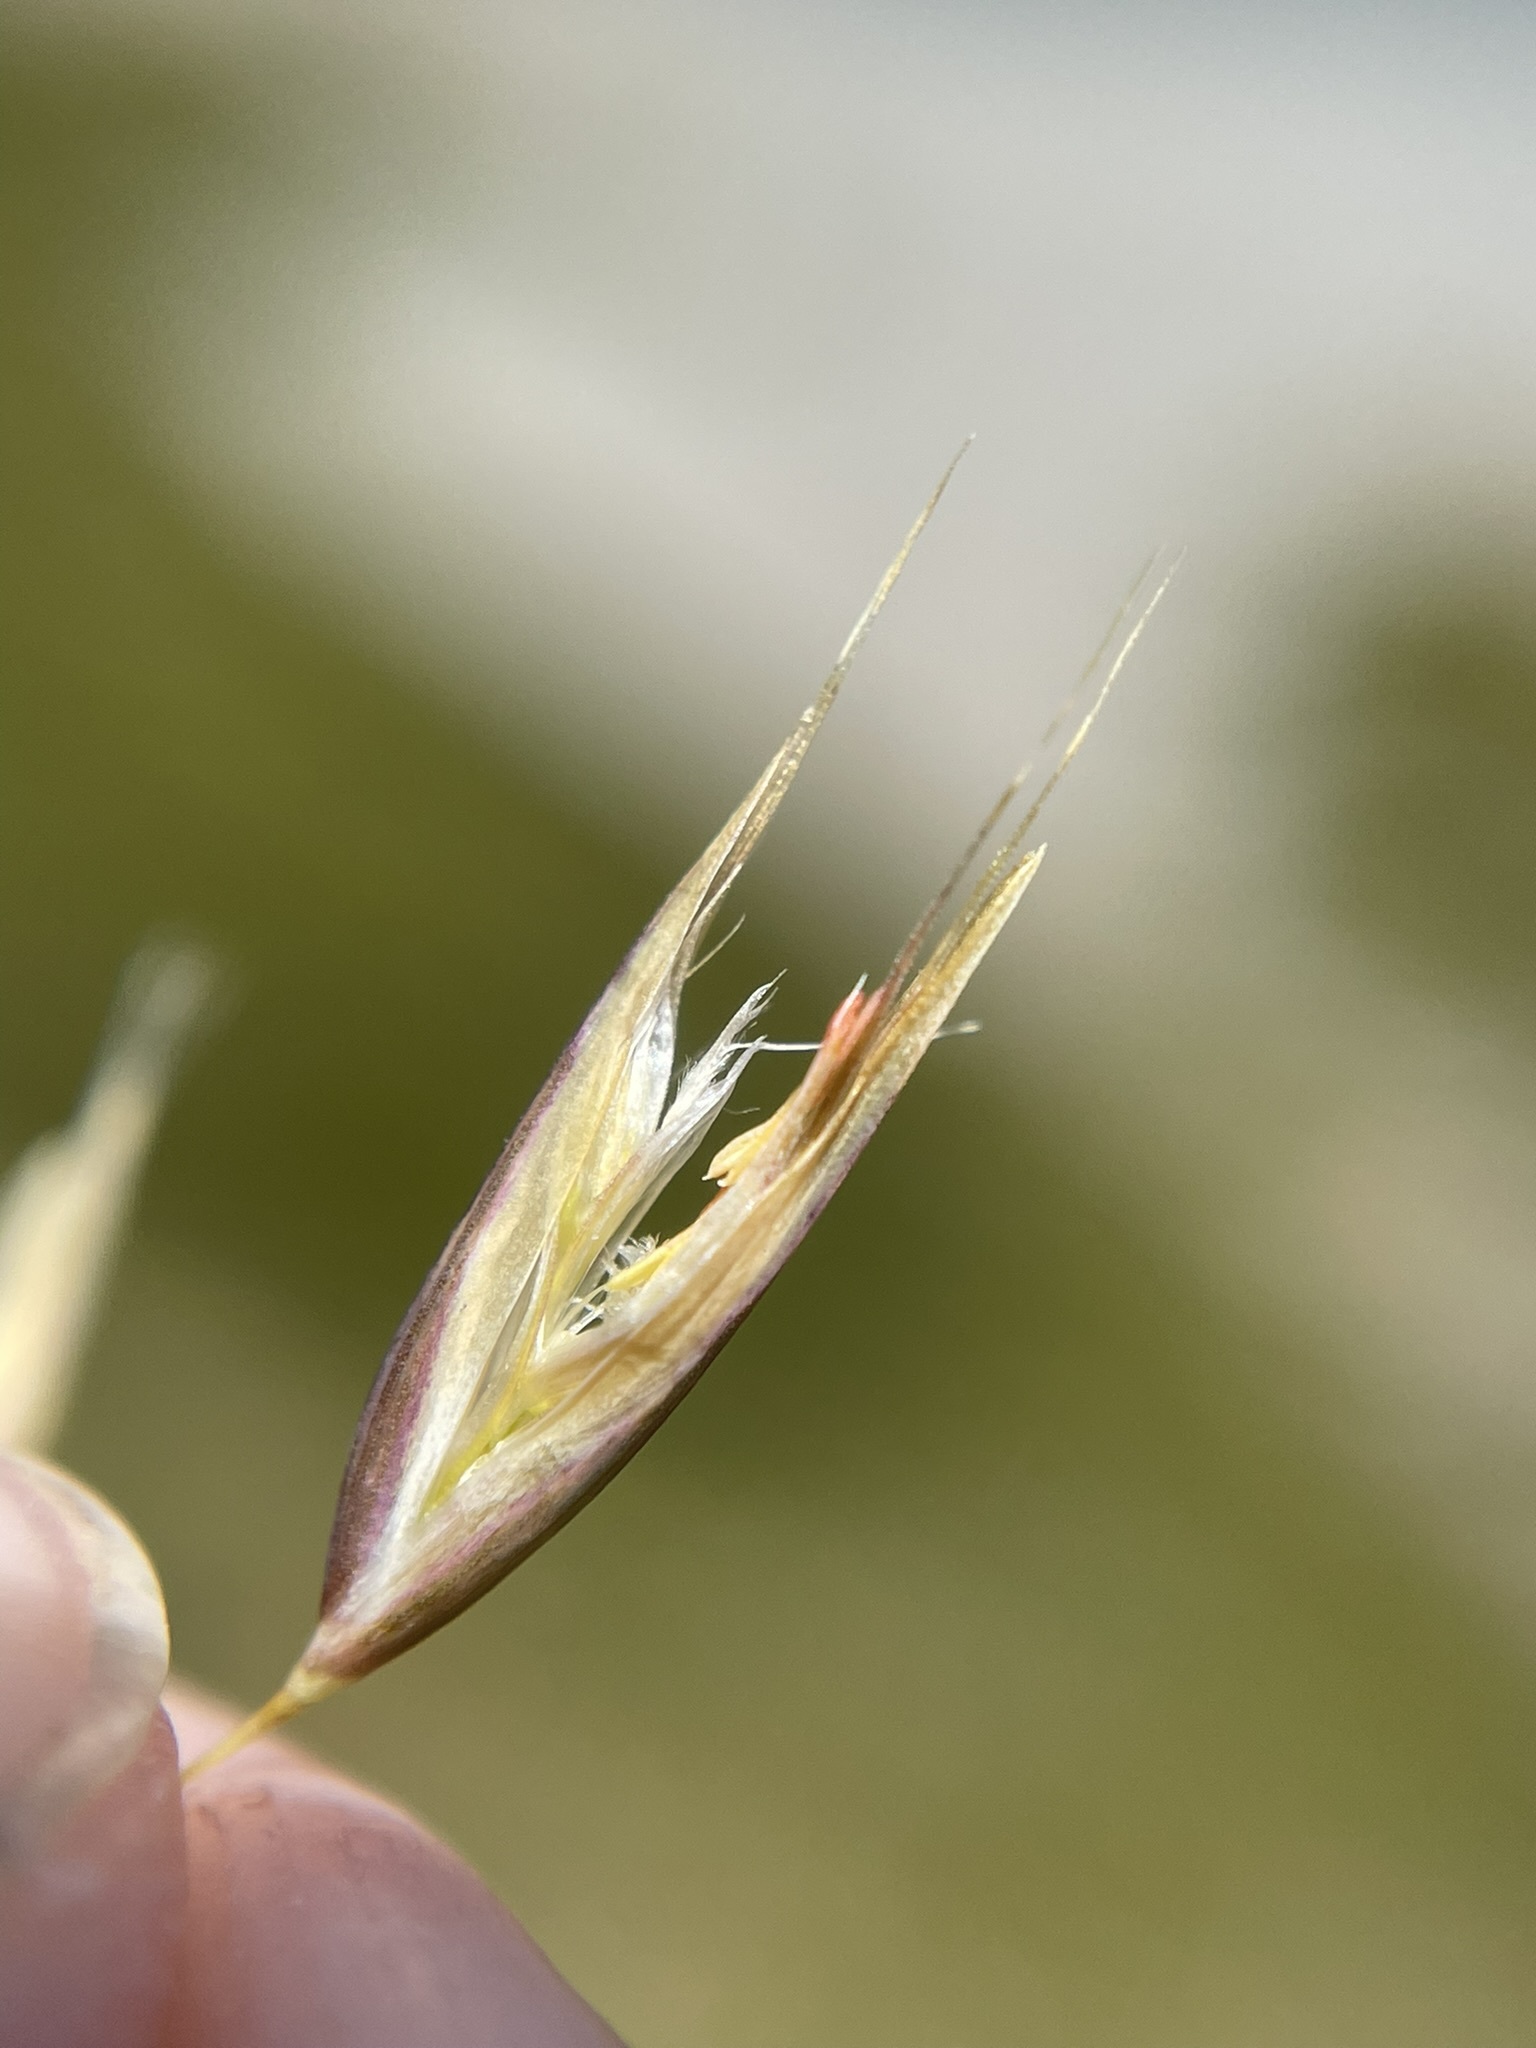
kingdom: Plantae
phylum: Tracheophyta
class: Liliopsida
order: Poales
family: Poaceae
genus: Rytidosperma
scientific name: Rytidosperma setifolium
